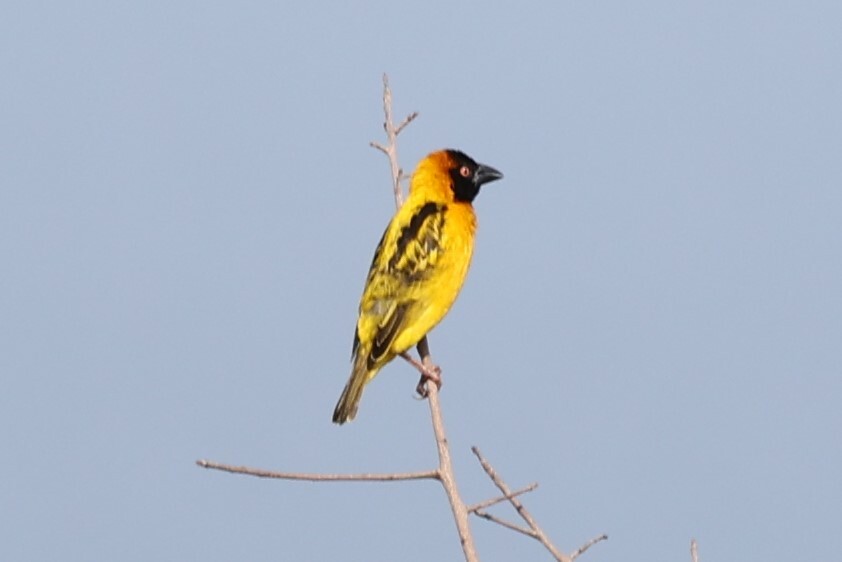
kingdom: Animalia
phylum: Chordata
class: Aves
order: Passeriformes
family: Ploceidae
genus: Ploceus
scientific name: Ploceus cucullatus
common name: Village weaver
